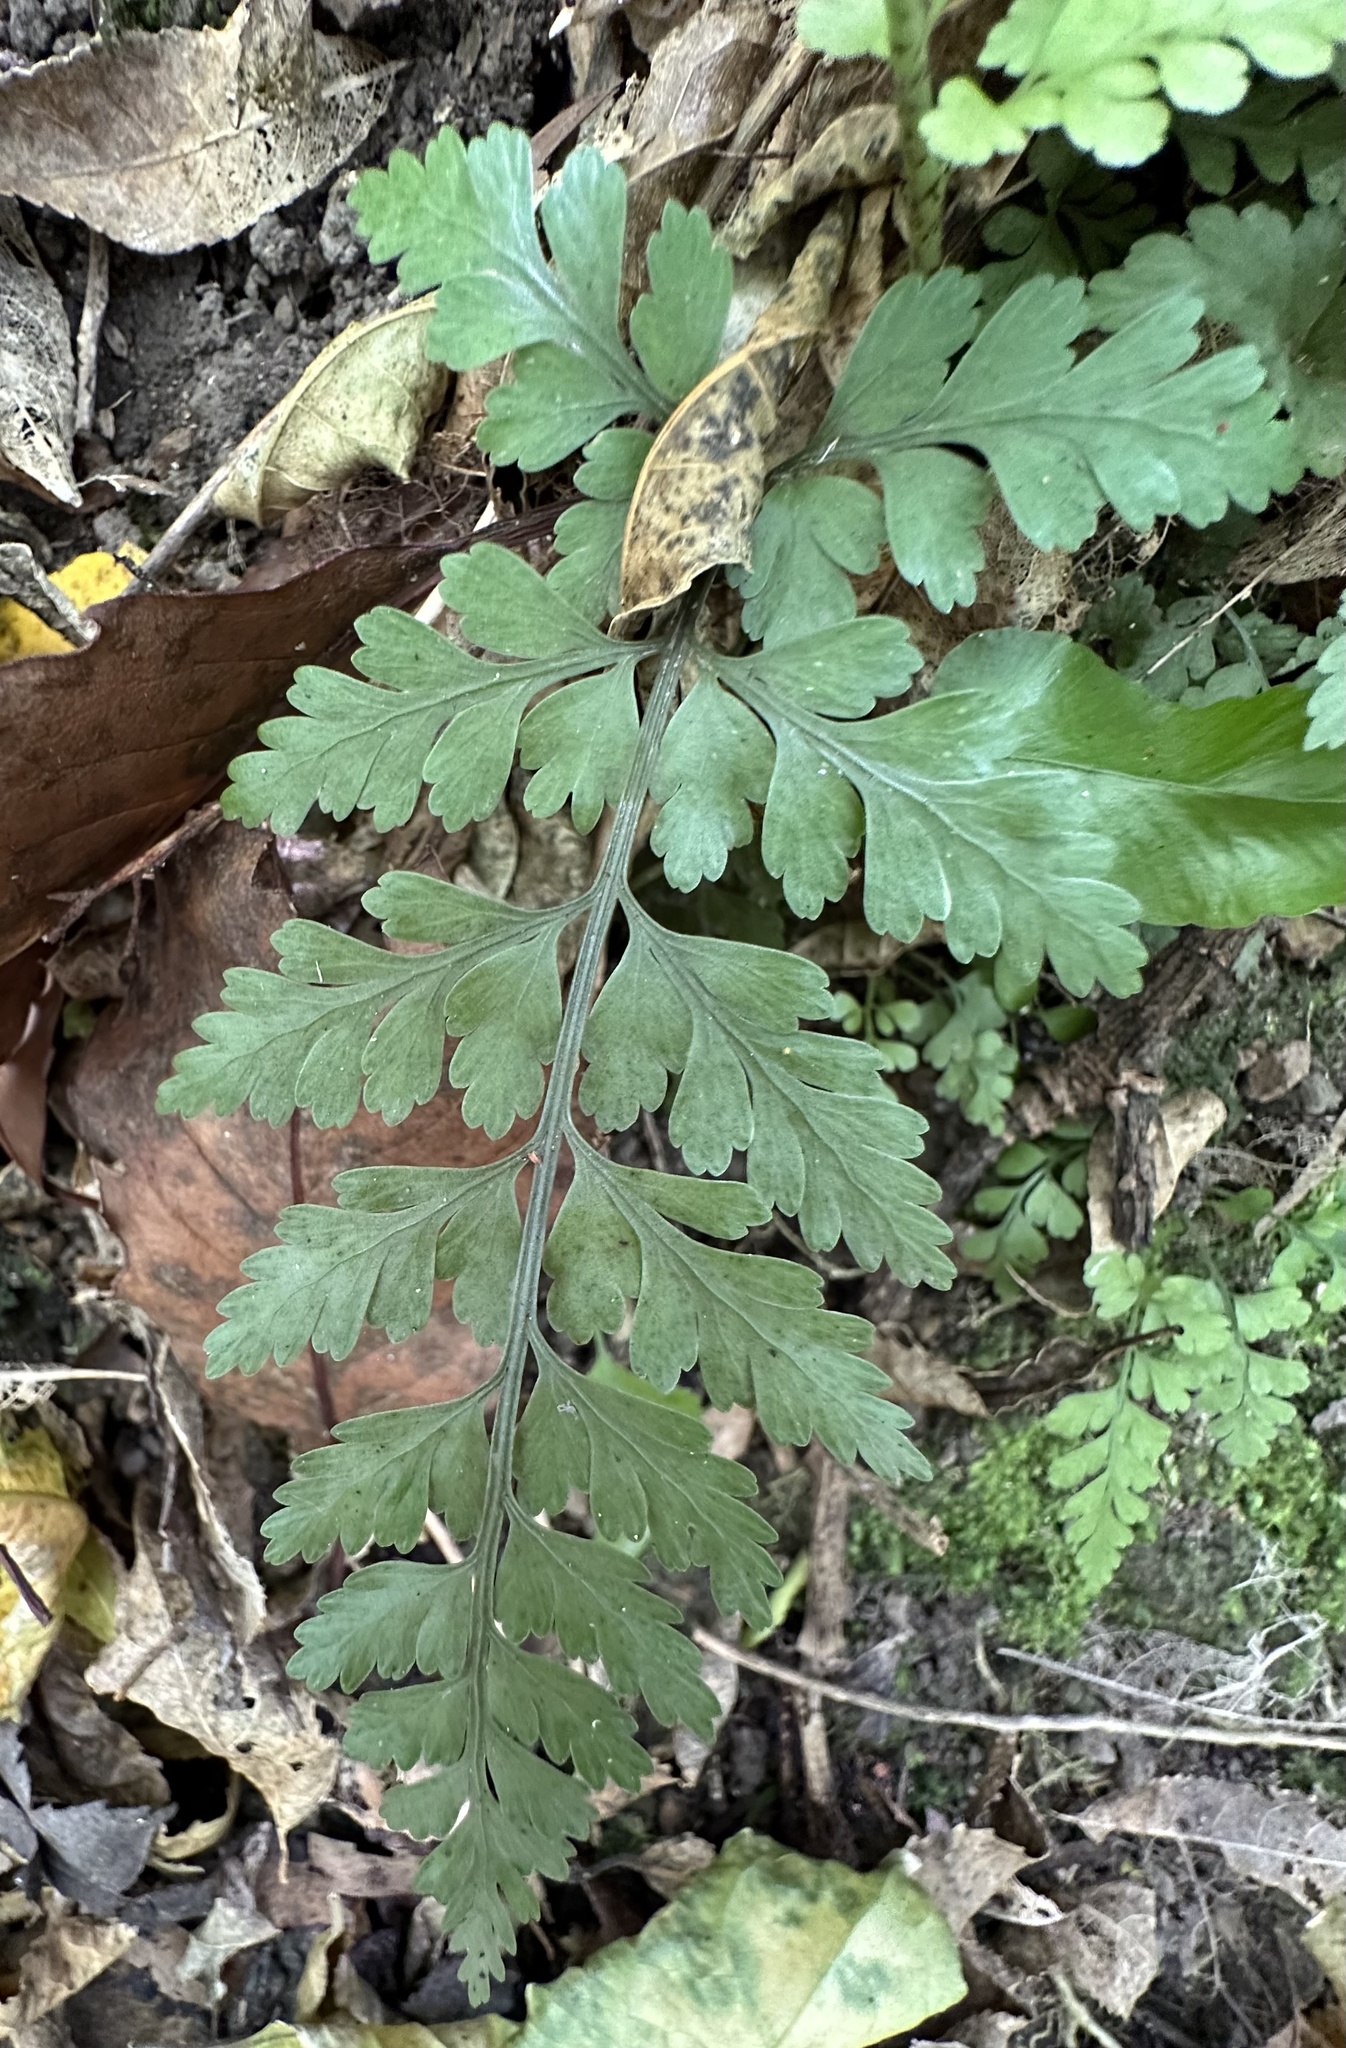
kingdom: Plantae
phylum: Tracheophyta
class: Polypodiopsida
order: Polypodiales
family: Aspleniaceae
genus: Asplenium
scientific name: Asplenium
